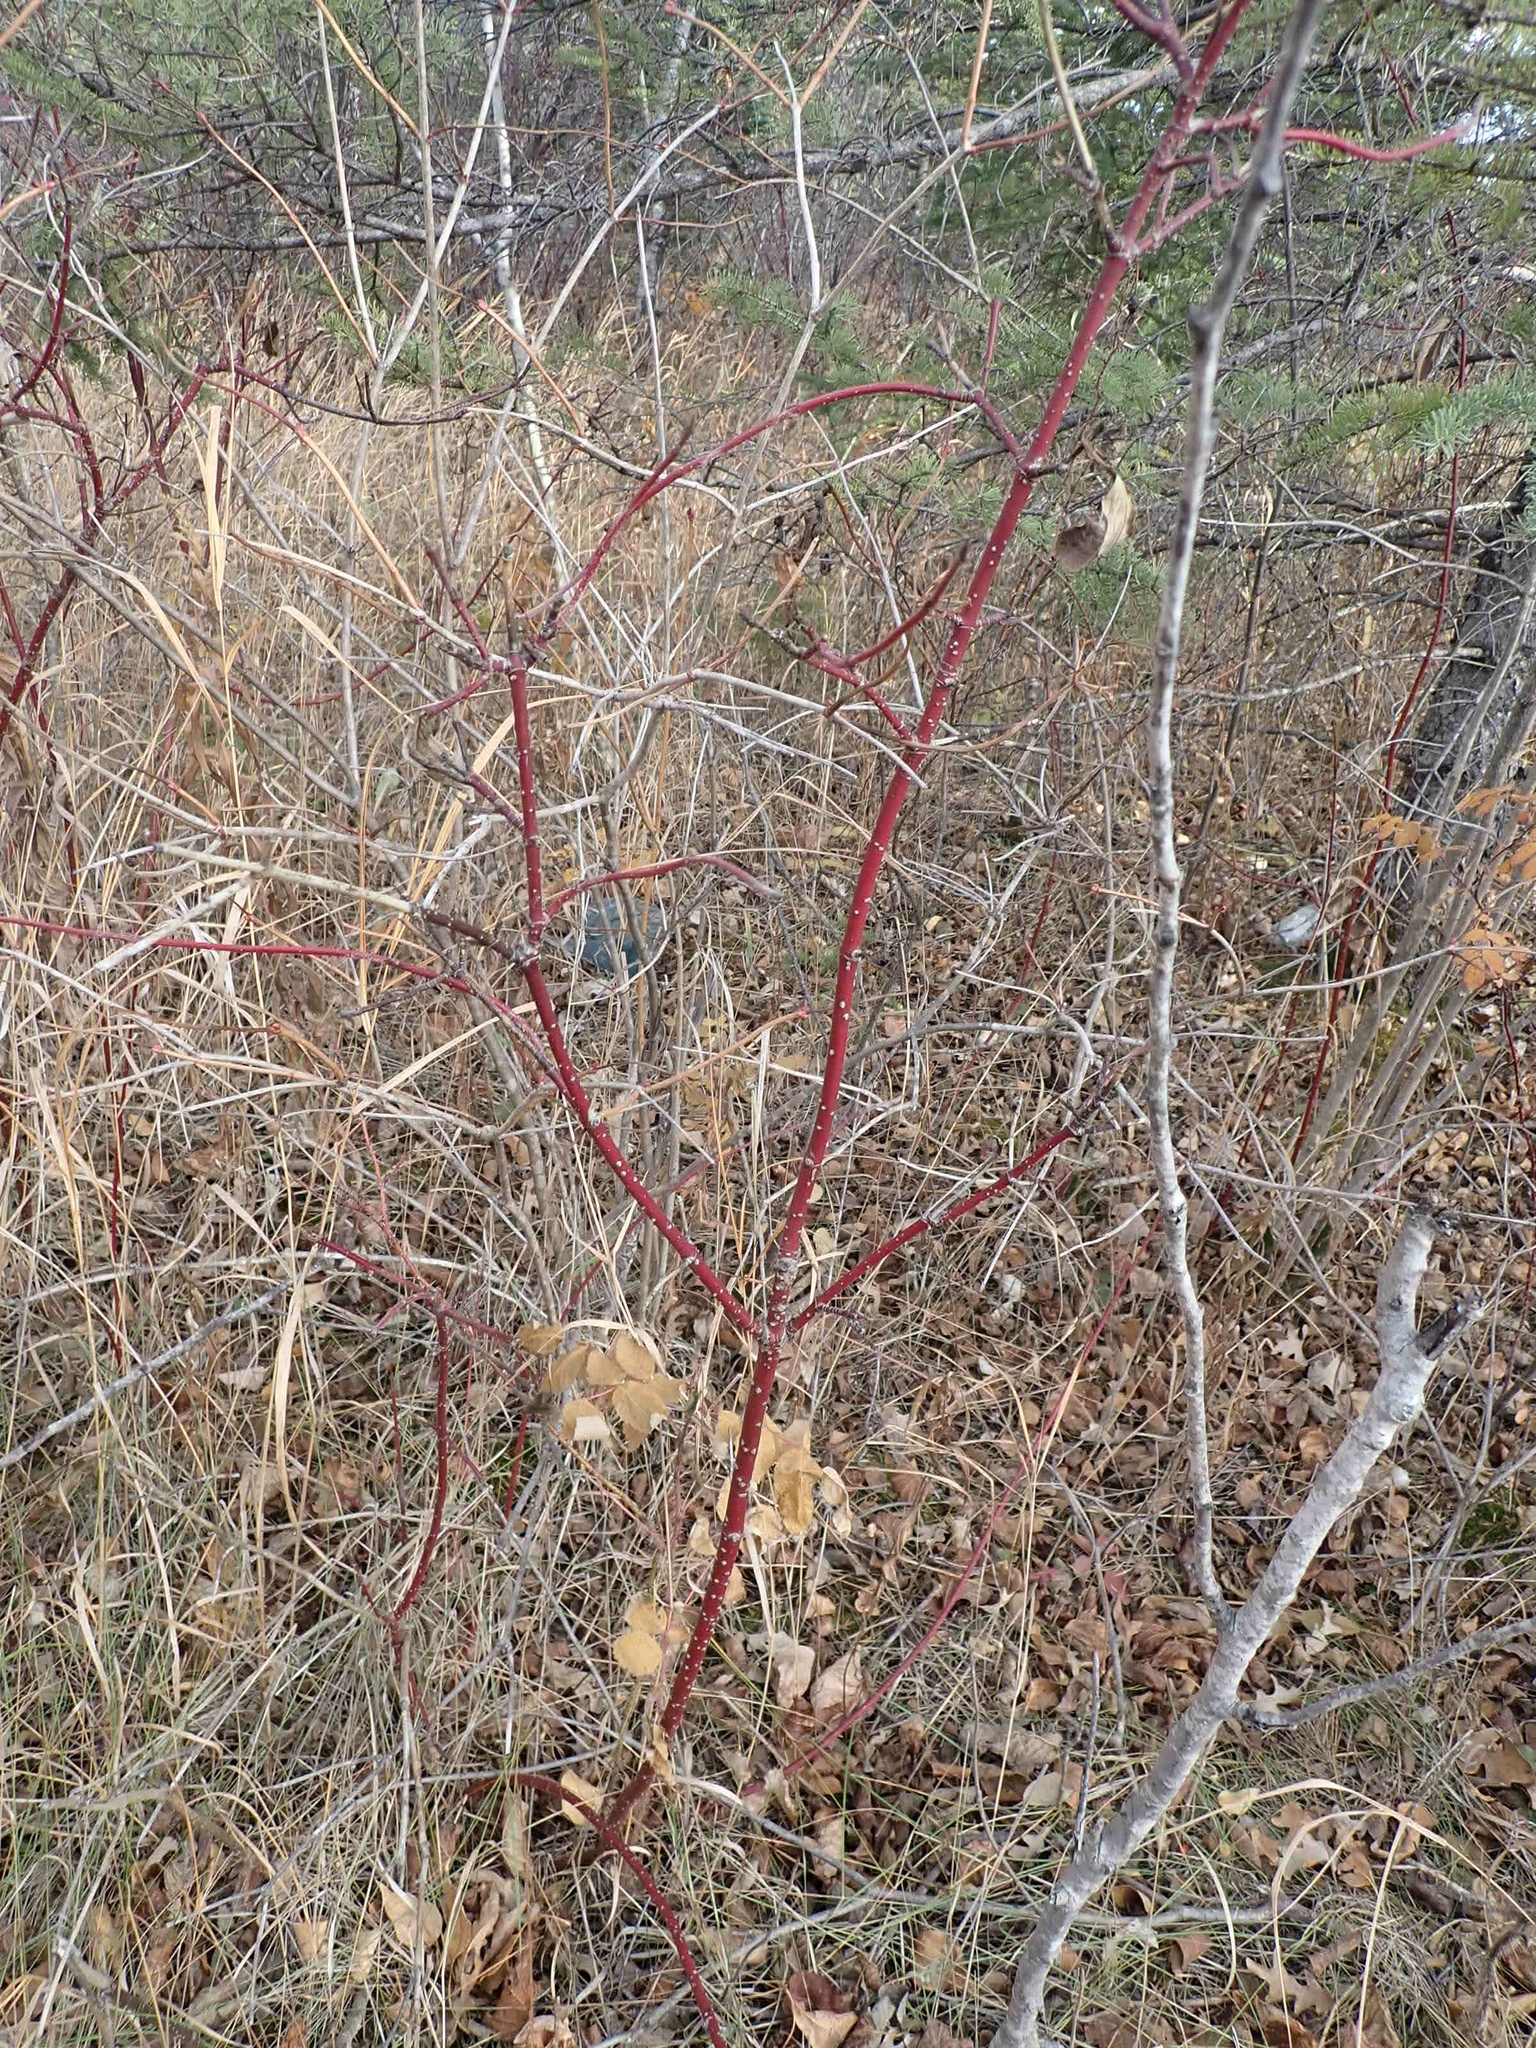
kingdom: Plantae
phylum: Tracheophyta
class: Magnoliopsida
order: Cornales
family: Cornaceae
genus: Cornus
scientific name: Cornus sericea
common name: Red-osier dogwood
